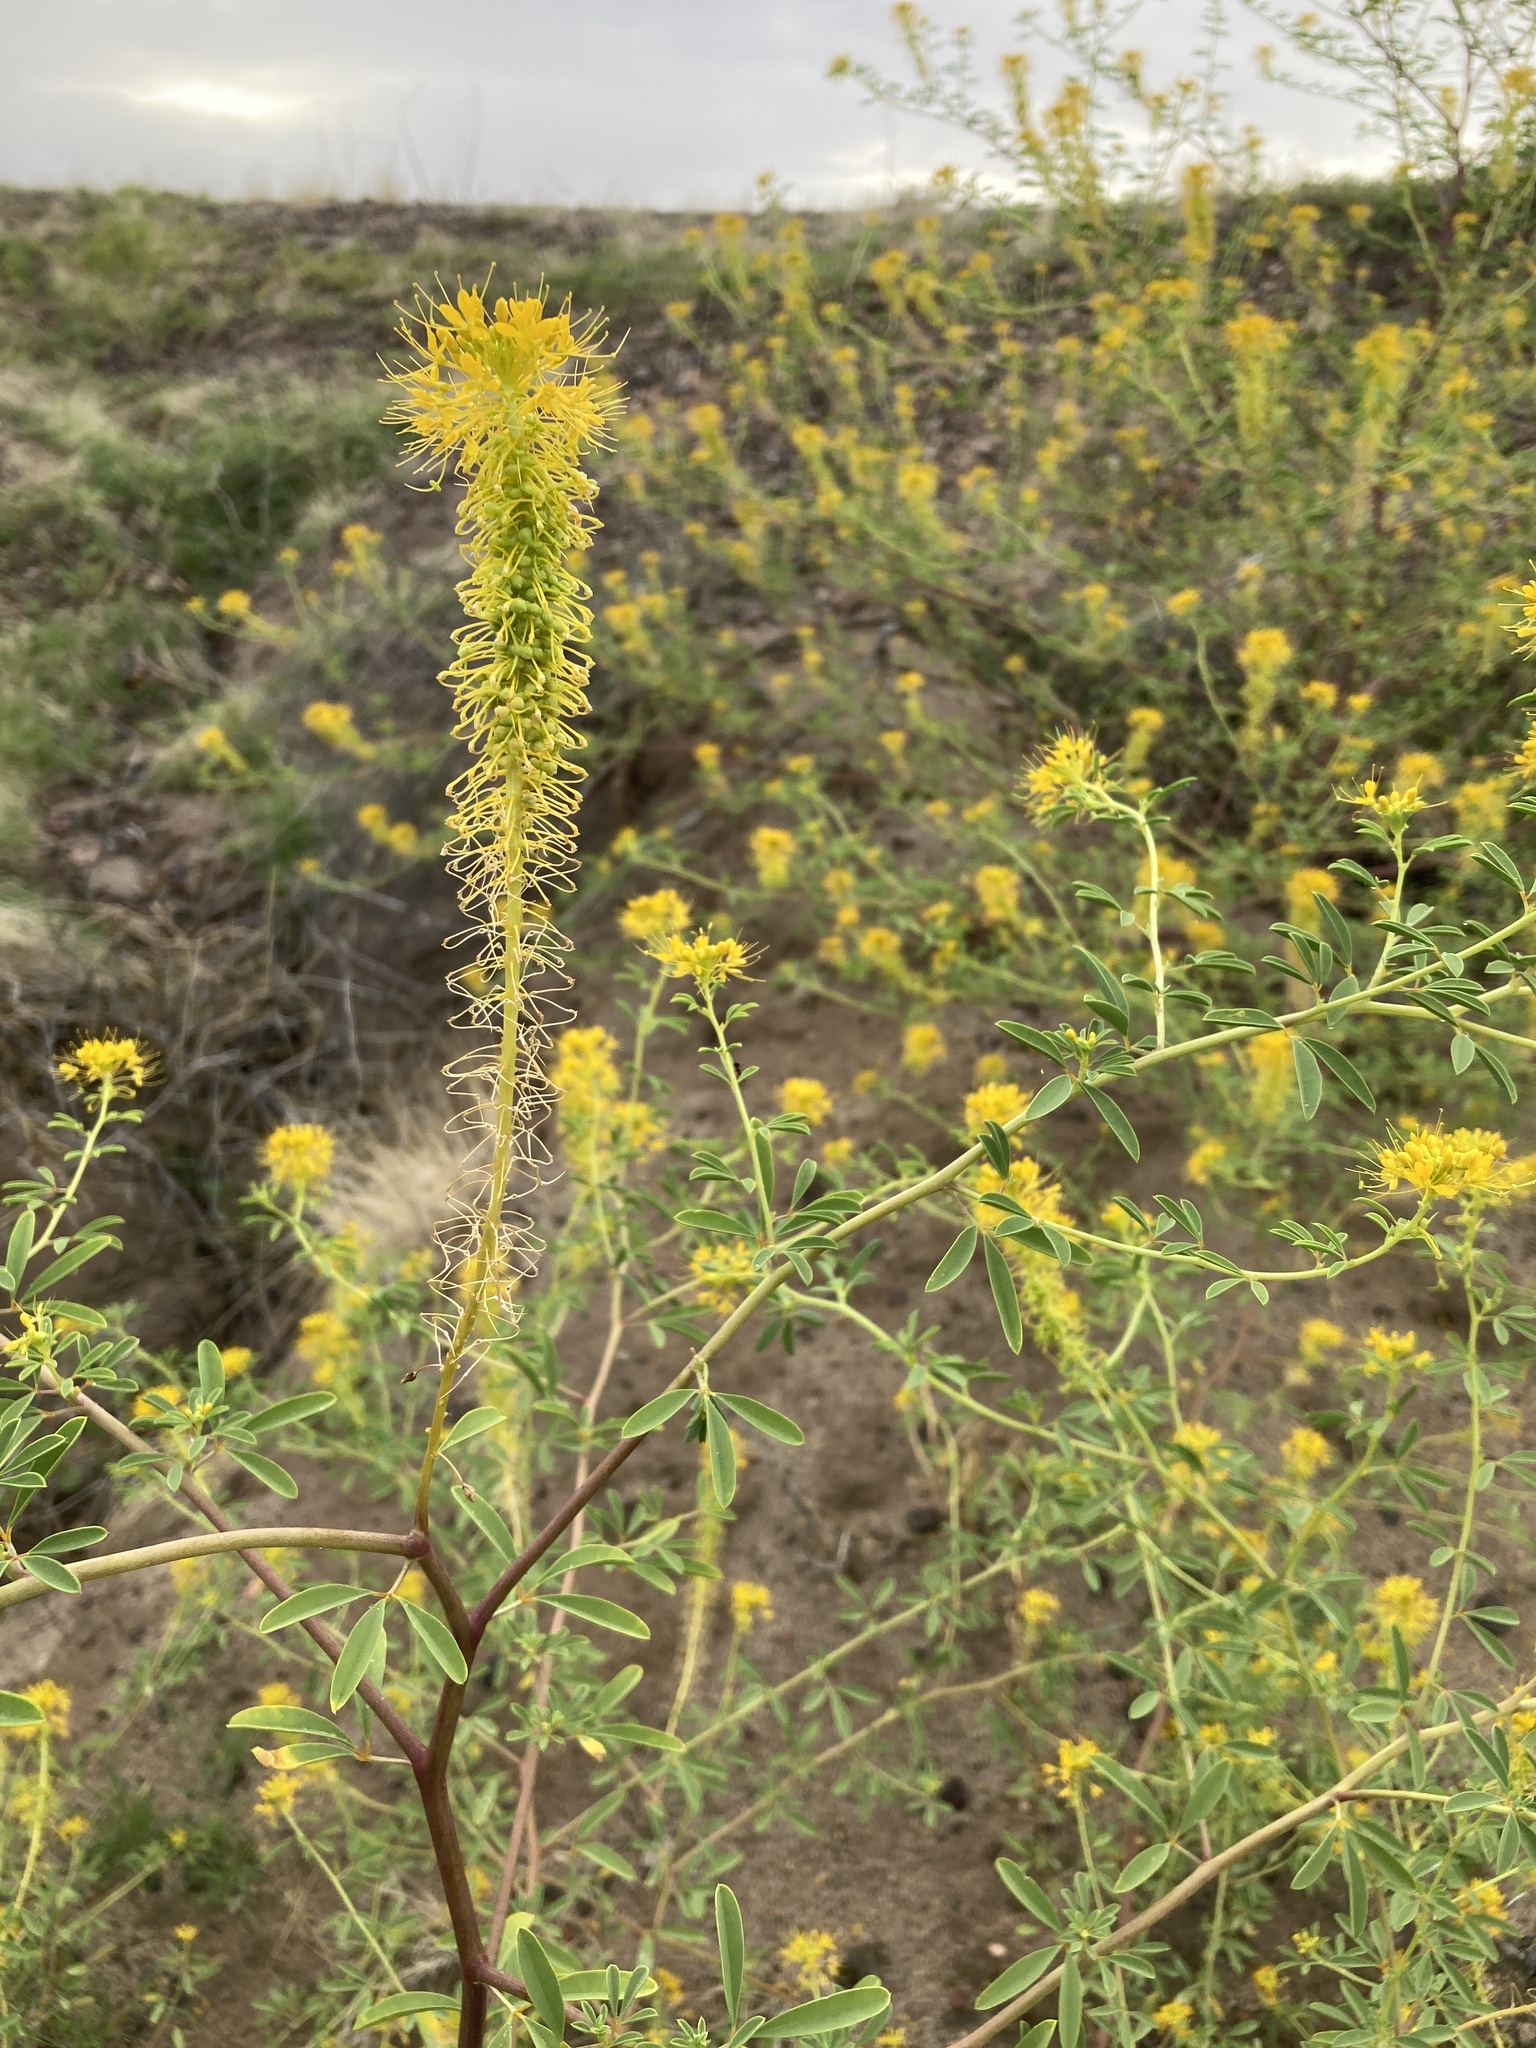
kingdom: Plantae
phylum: Tracheophyta
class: Magnoliopsida
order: Brassicales
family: Cleomaceae
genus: Cleomella
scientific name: Cleomella refracta
